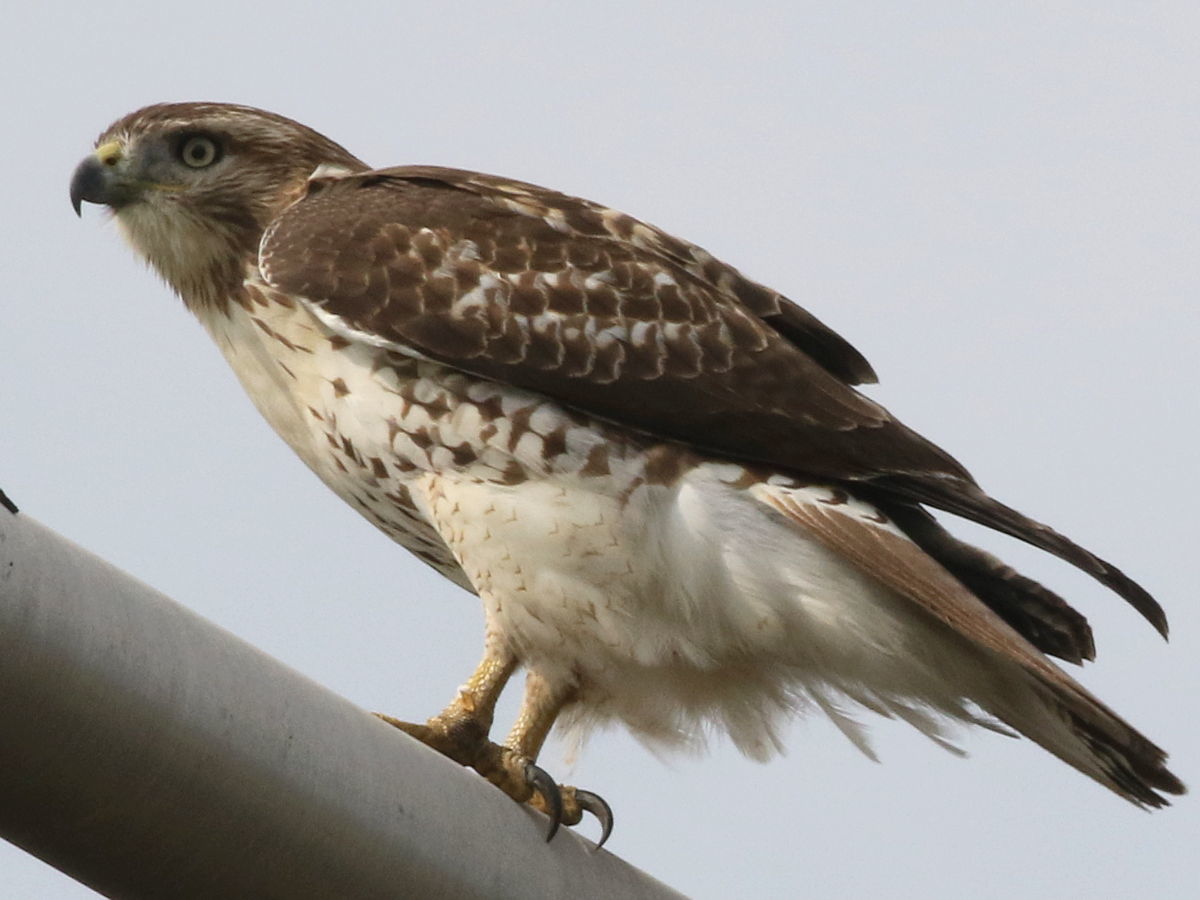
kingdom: Animalia
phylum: Chordata
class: Aves
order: Accipitriformes
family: Accipitridae
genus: Buteo
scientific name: Buteo jamaicensis
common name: Red-tailed hawk
